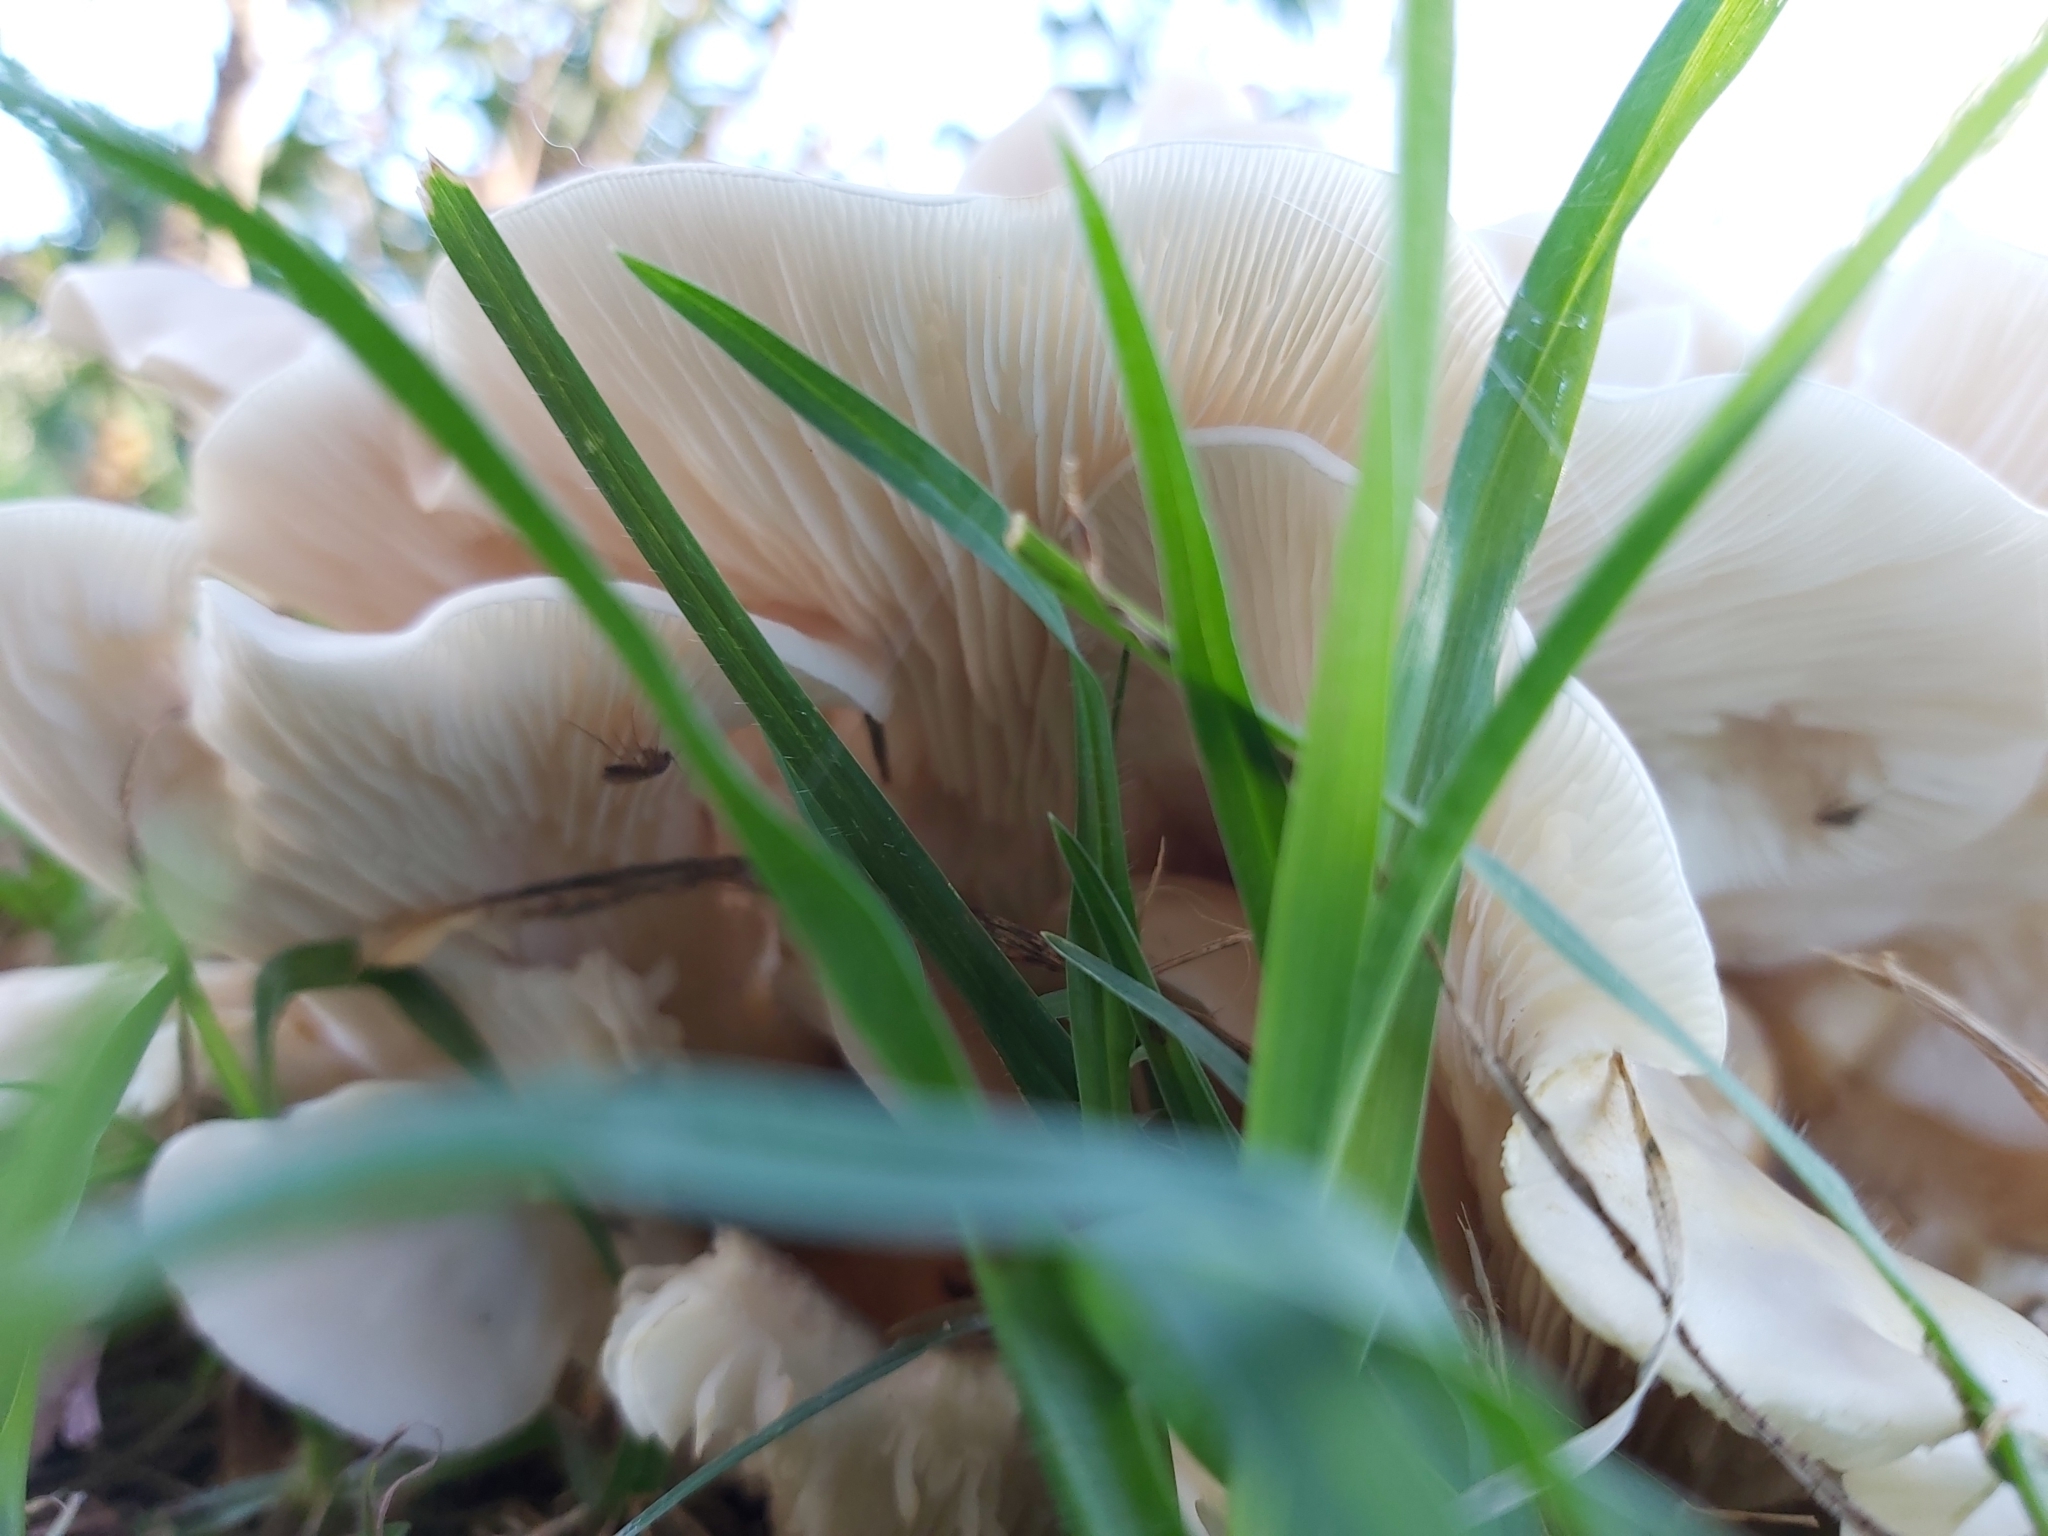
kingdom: Fungi
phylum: Basidiomycota
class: Agaricomycetes
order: Agaricales
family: Omphalotaceae
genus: Omphalotus
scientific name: Omphalotus nidiformis
